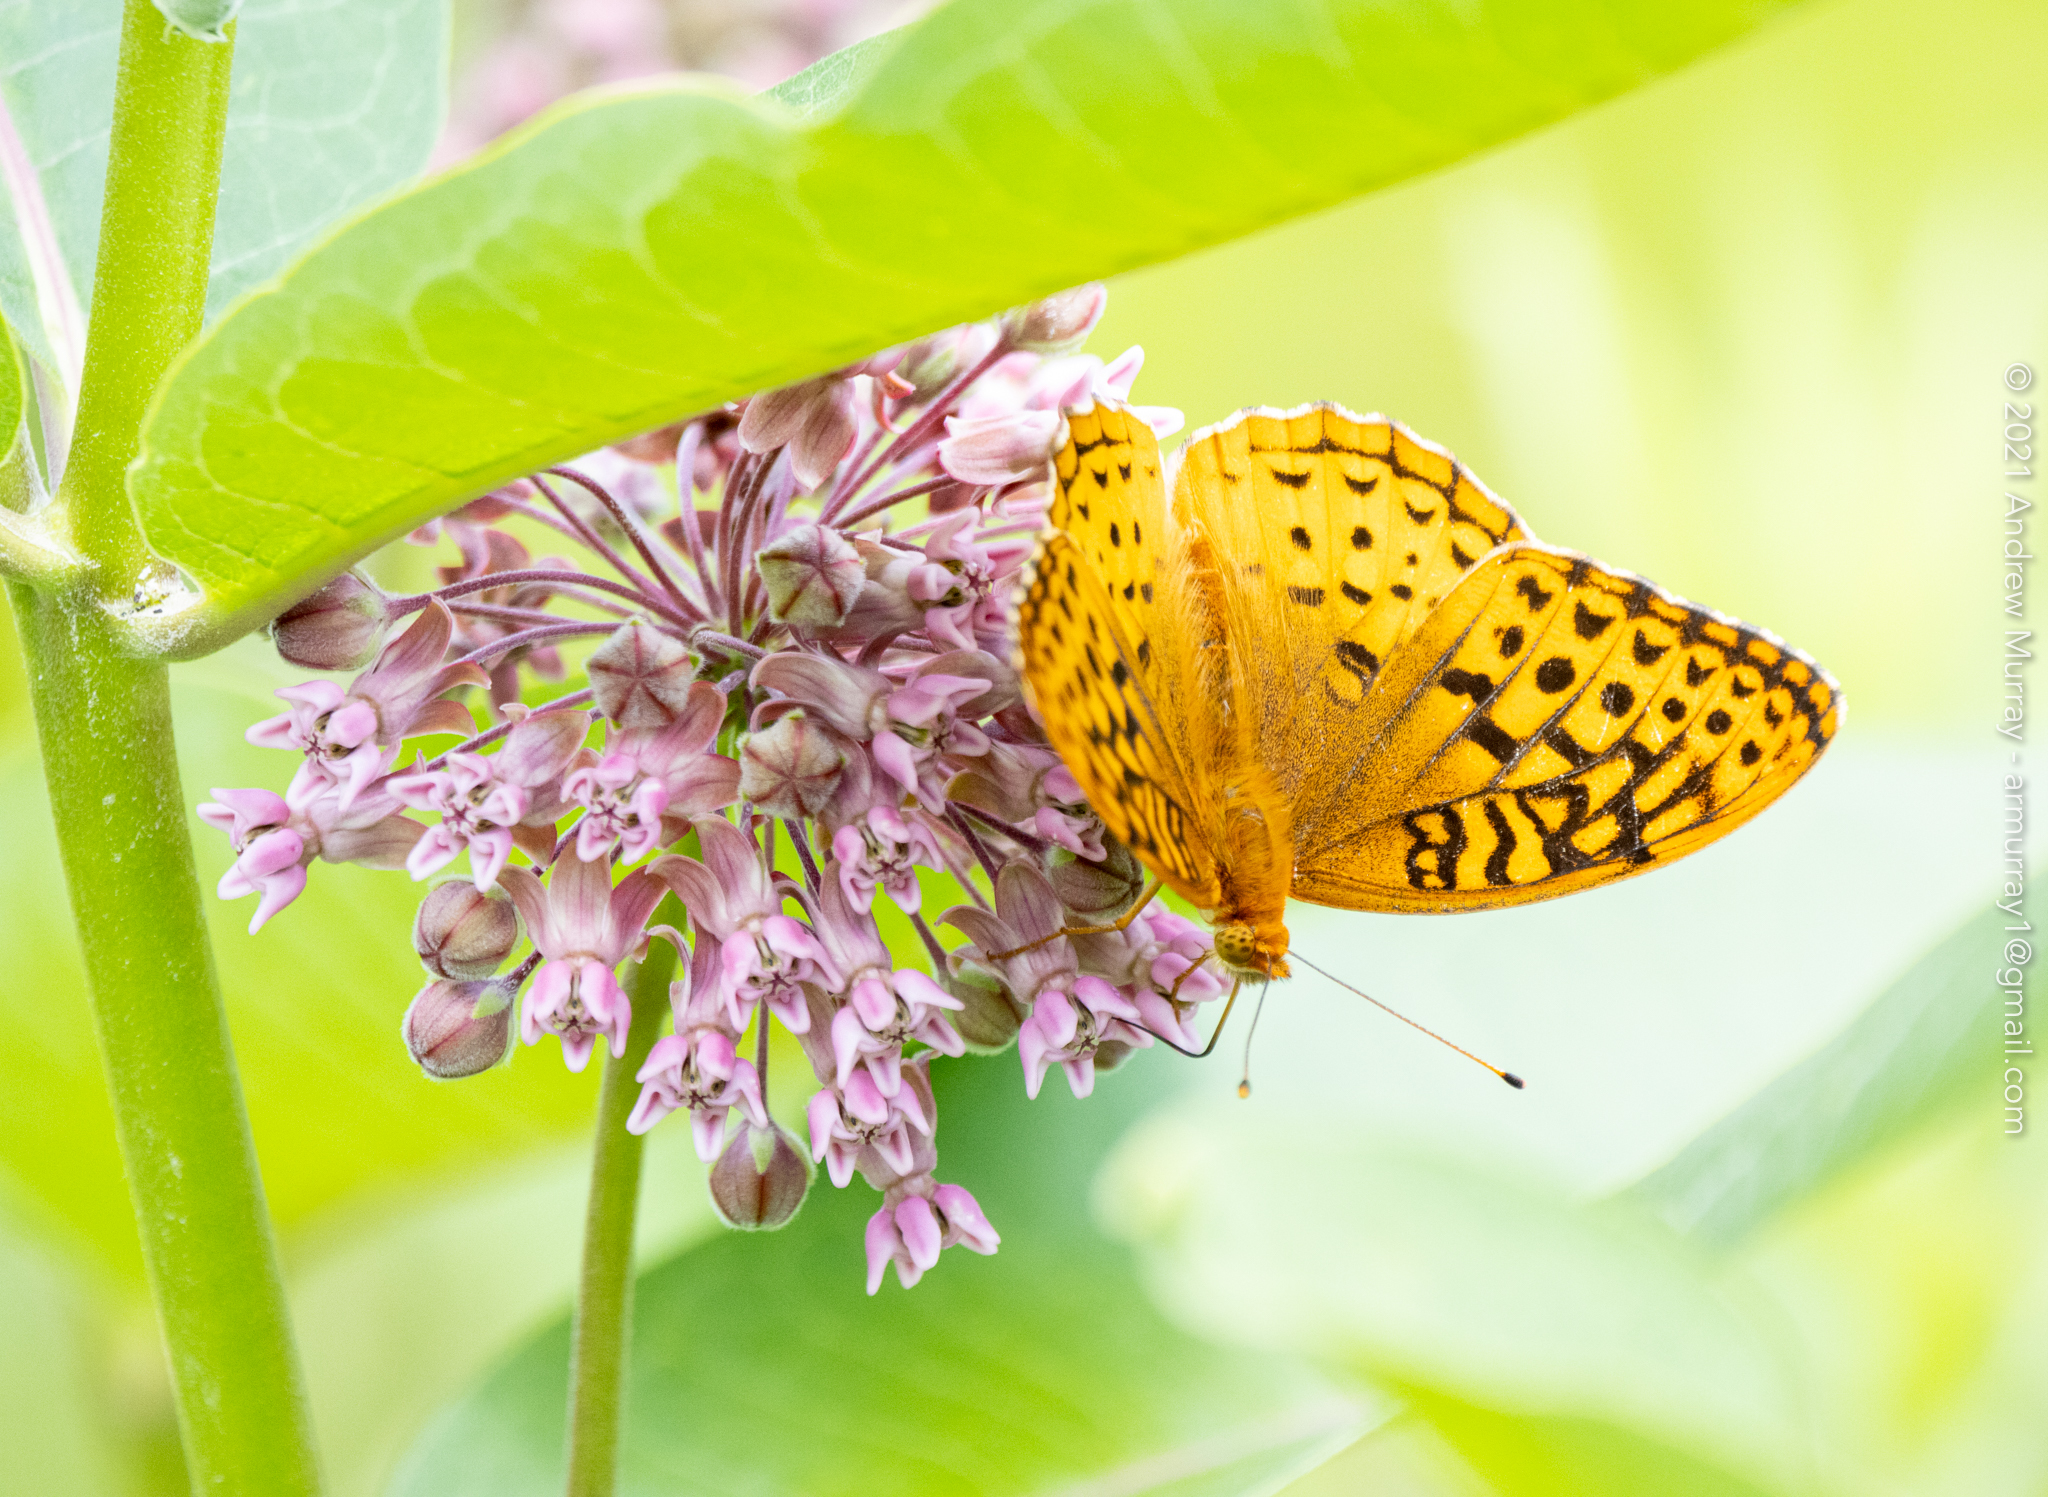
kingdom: Animalia
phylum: Arthropoda
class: Insecta
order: Lepidoptera
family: Nymphalidae
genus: Speyeria
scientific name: Speyeria cybele
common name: Great spangled fritillary
